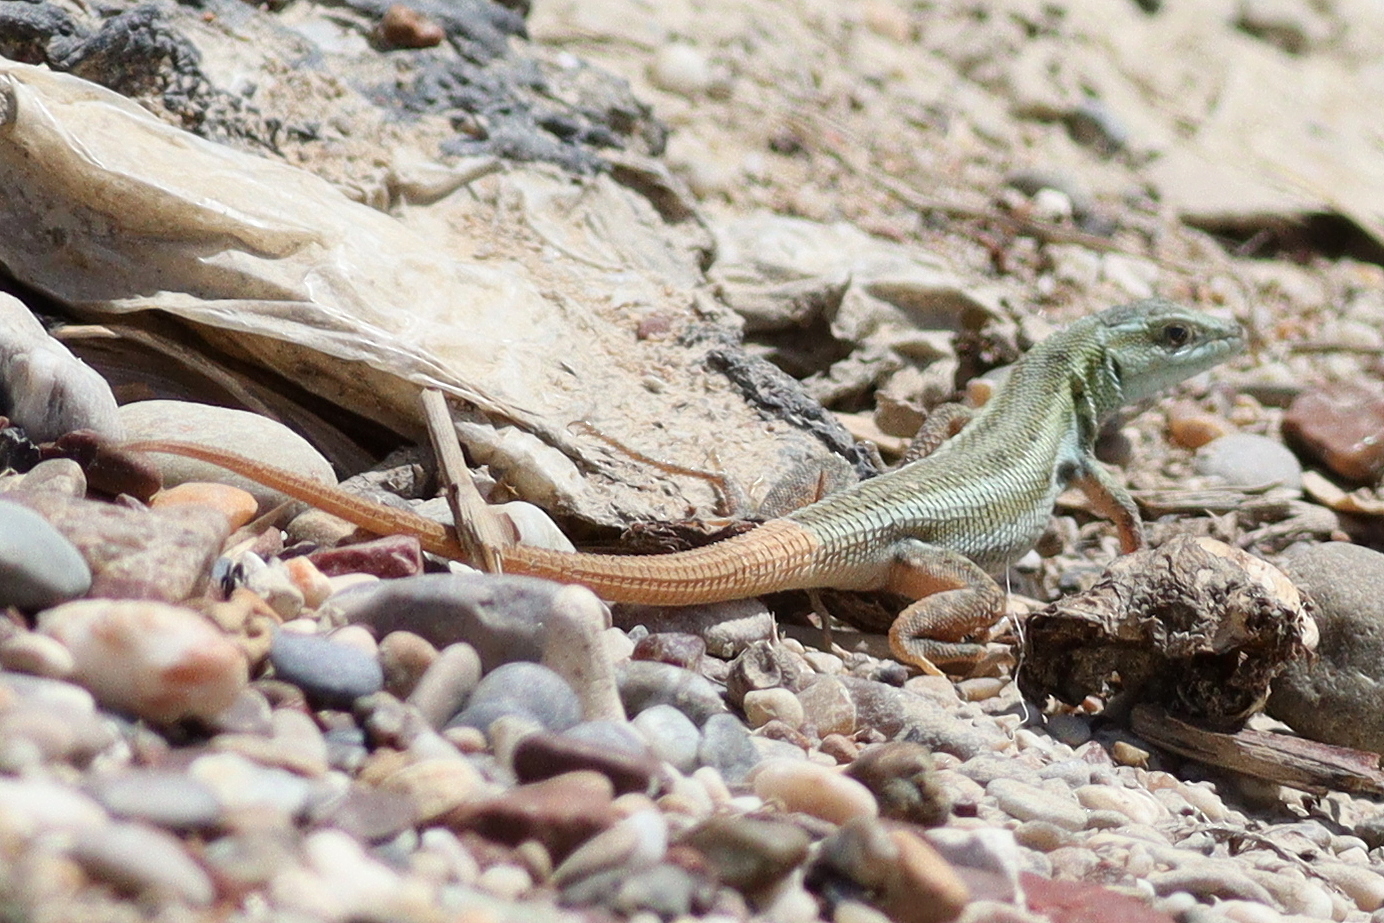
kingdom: Animalia
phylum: Chordata
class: Squamata
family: Lacertidae
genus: Ophisops
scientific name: Ophisops elegans
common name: Snake-eyed lizard
